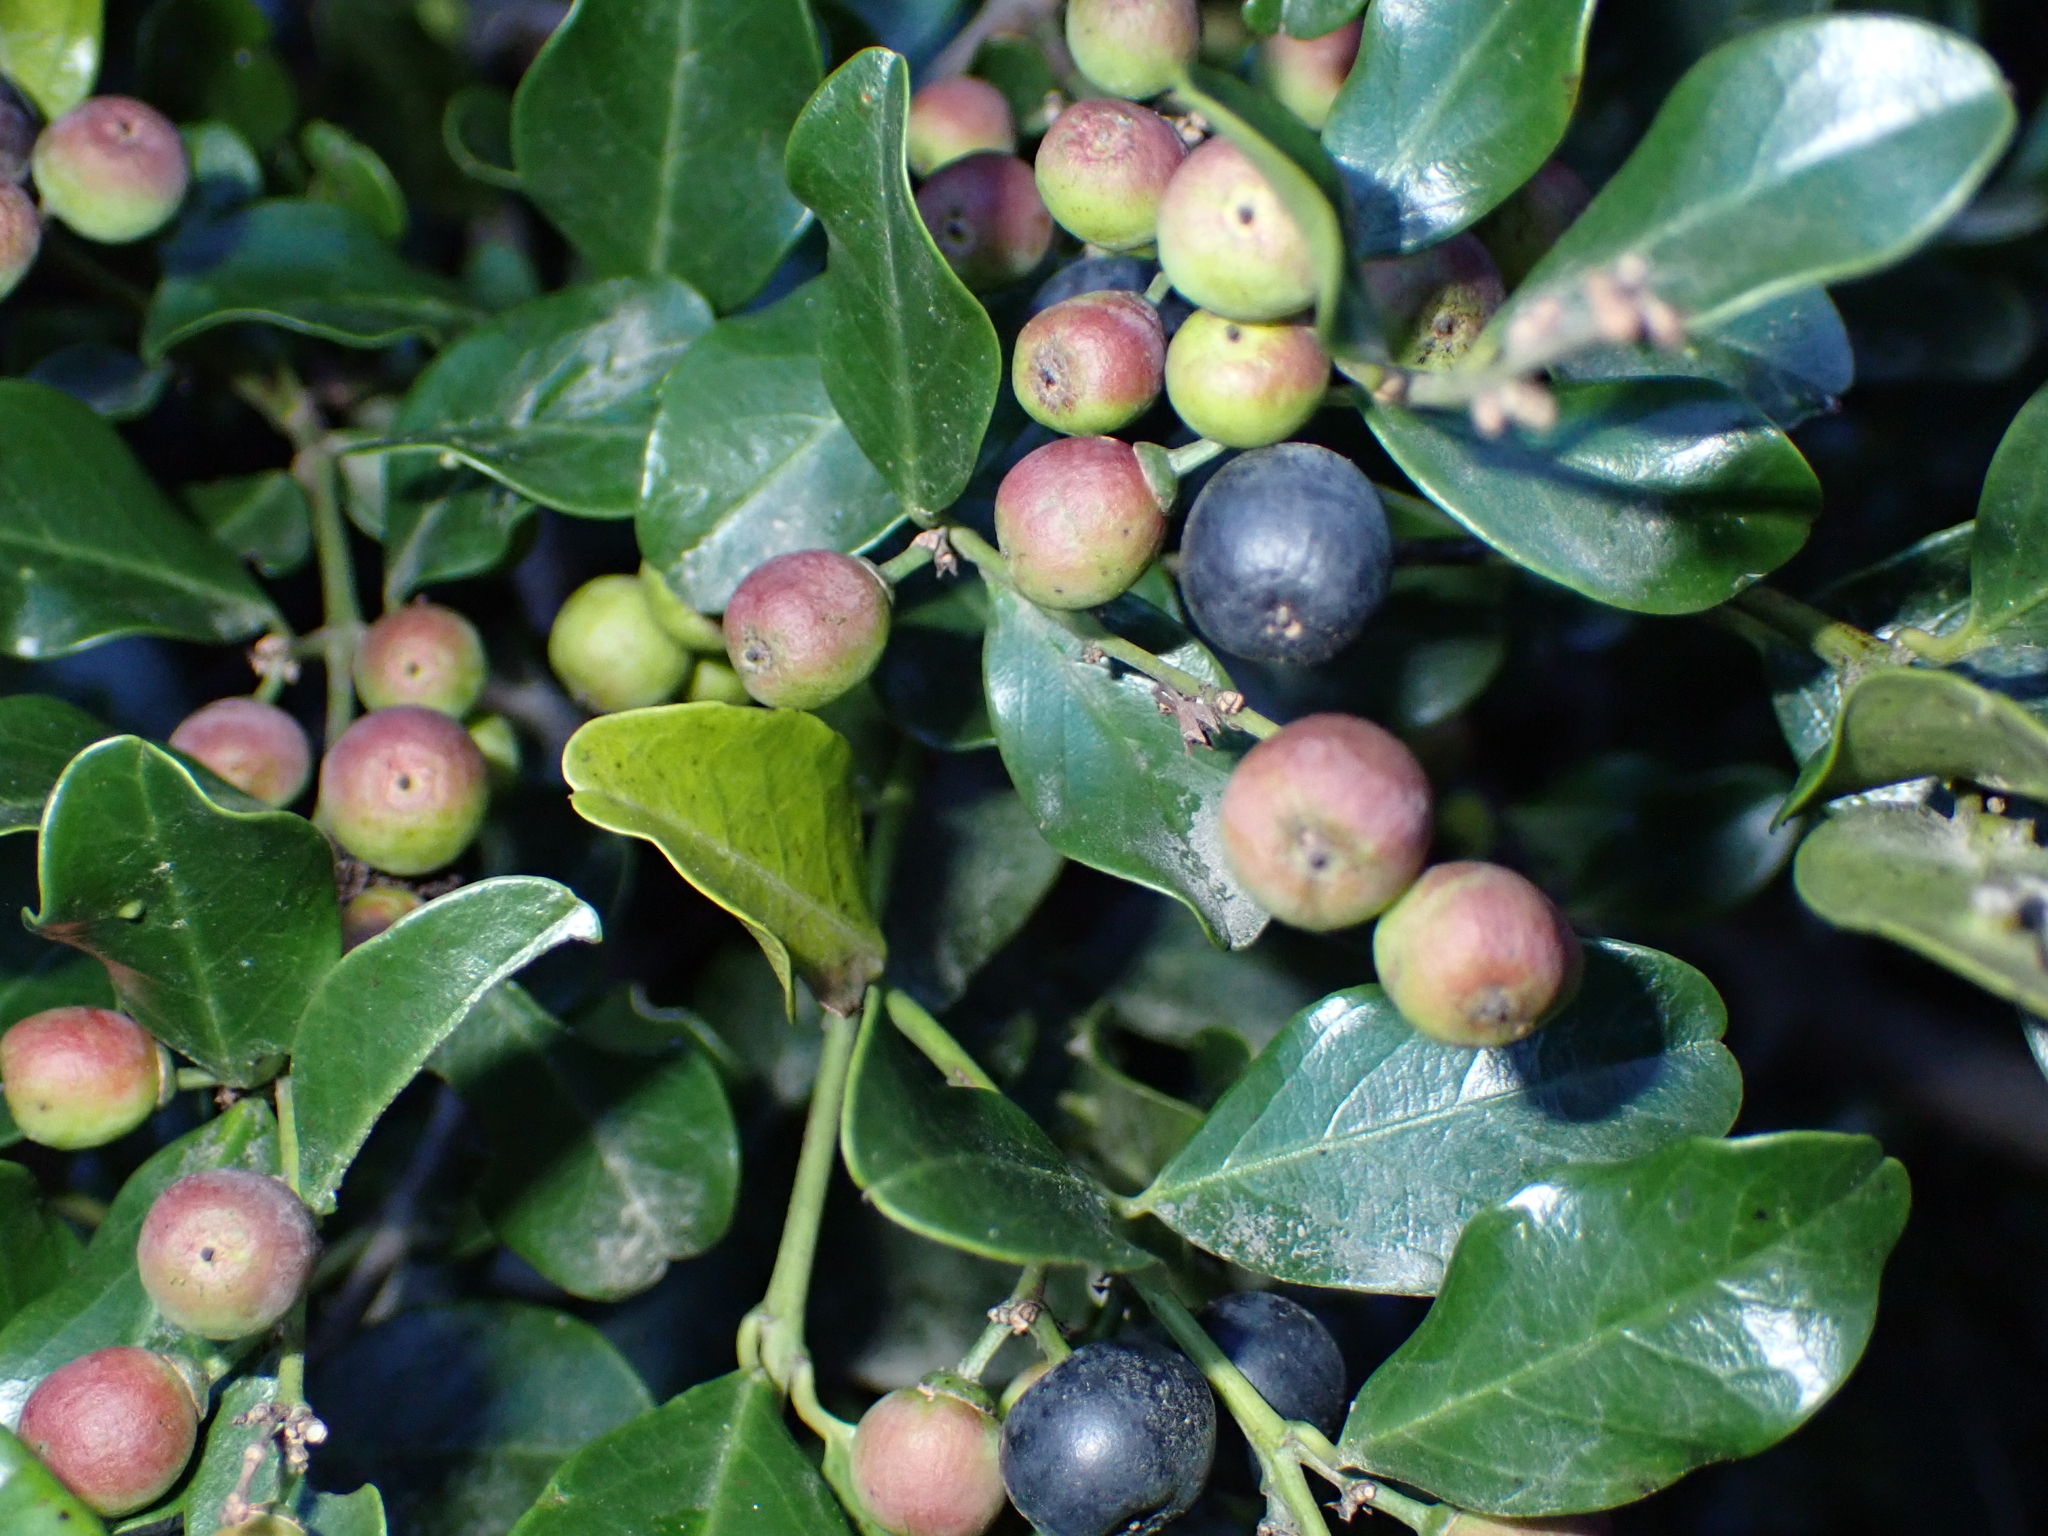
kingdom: Plantae
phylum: Tracheophyta
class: Magnoliopsida
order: Rosales
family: Rhamnaceae
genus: Scutia
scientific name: Scutia myrtina
